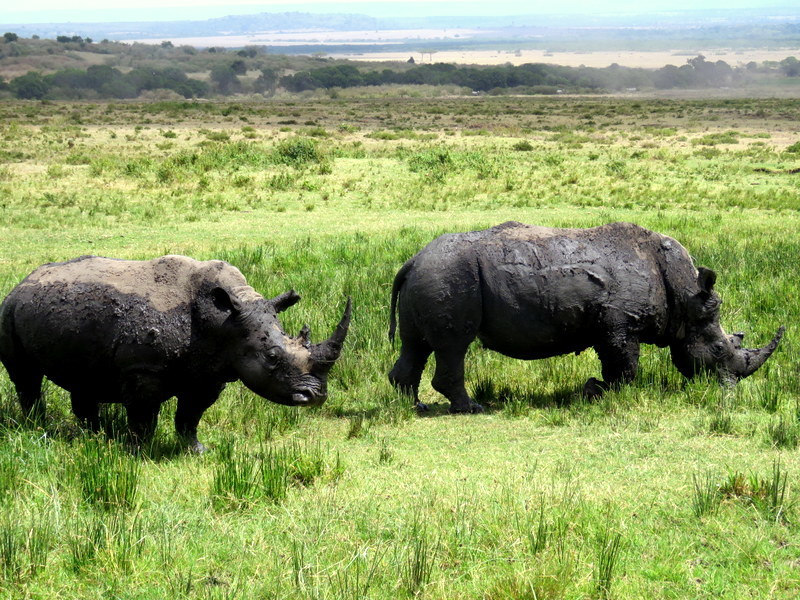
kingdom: Animalia
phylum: Chordata
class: Mammalia
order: Perissodactyla
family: Rhinocerotidae
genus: Ceratotherium
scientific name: Ceratotherium simum
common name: White rhinoceros
